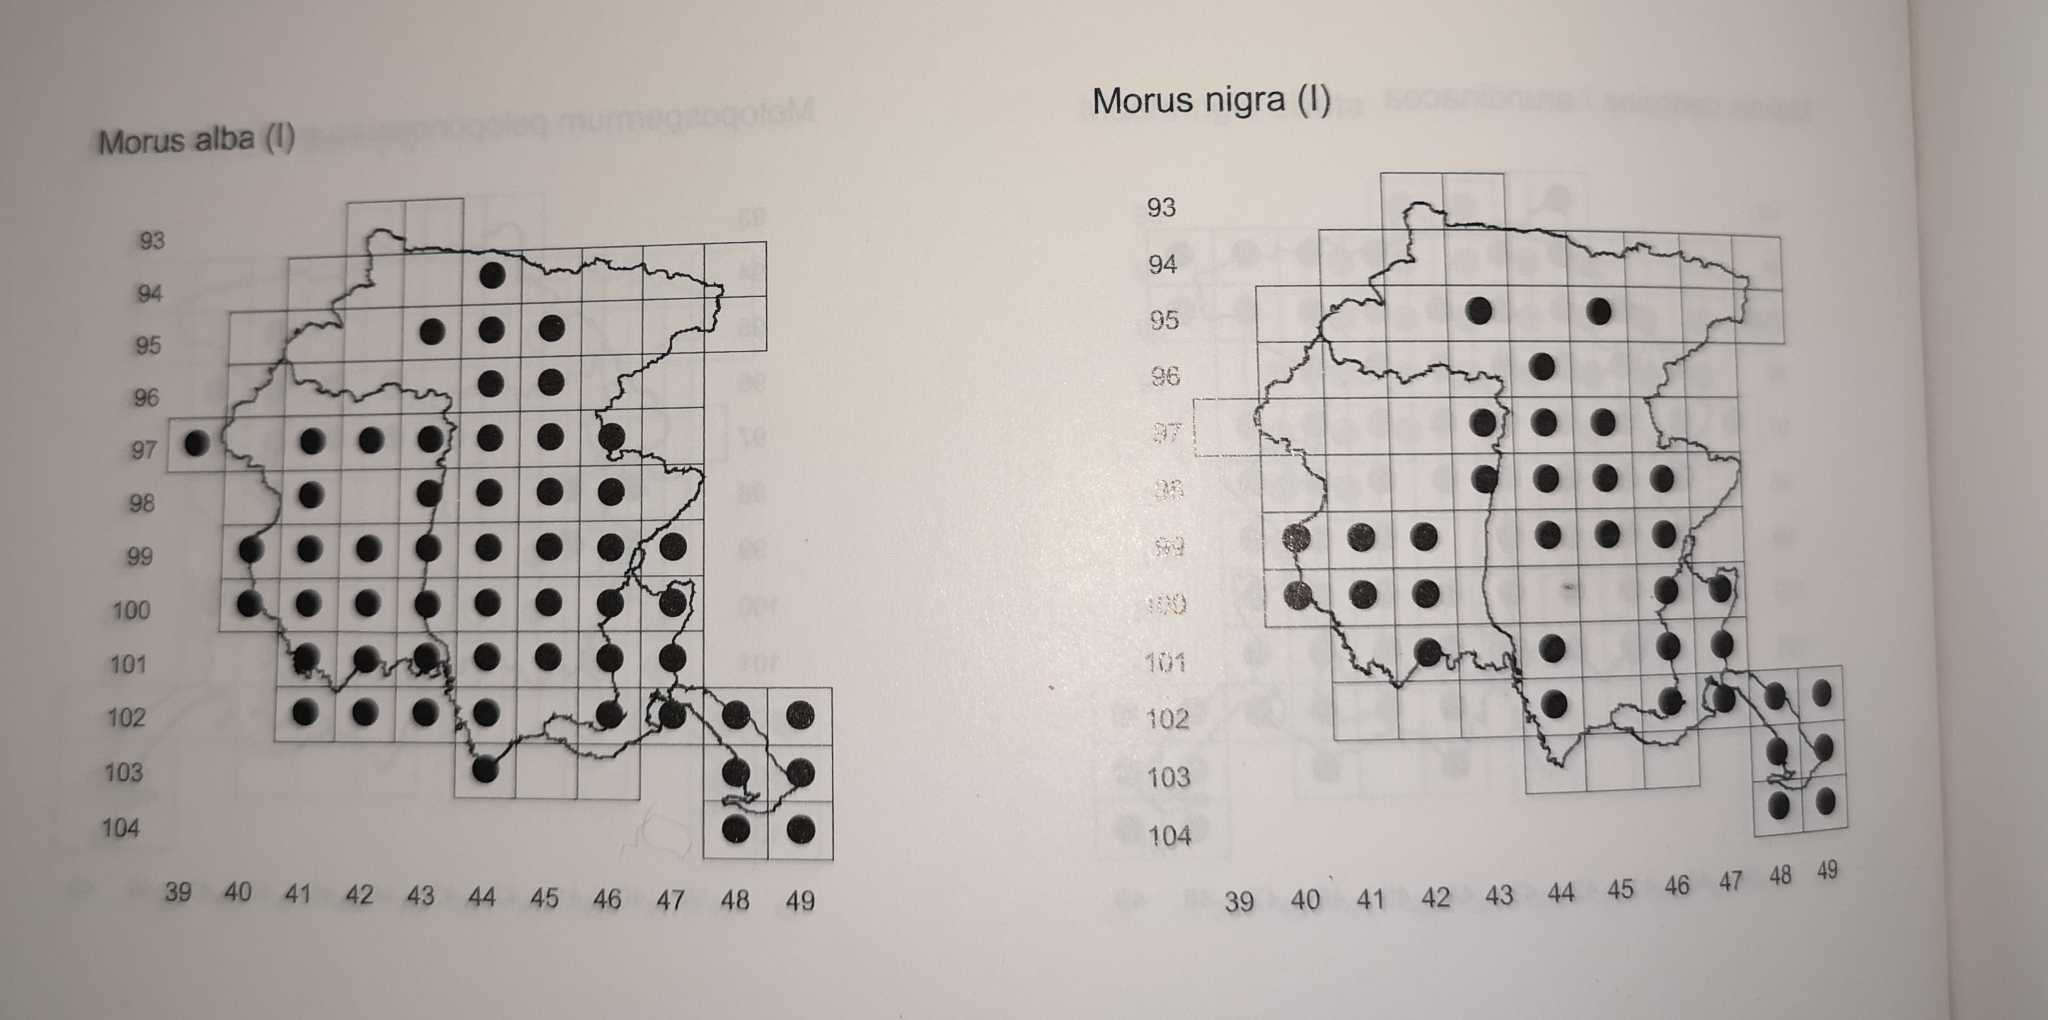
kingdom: Plantae
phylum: Tracheophyta
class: Magnoliopsida
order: Rosales
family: Moraceae
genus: Morus
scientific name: Morus alba
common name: White mulberry
